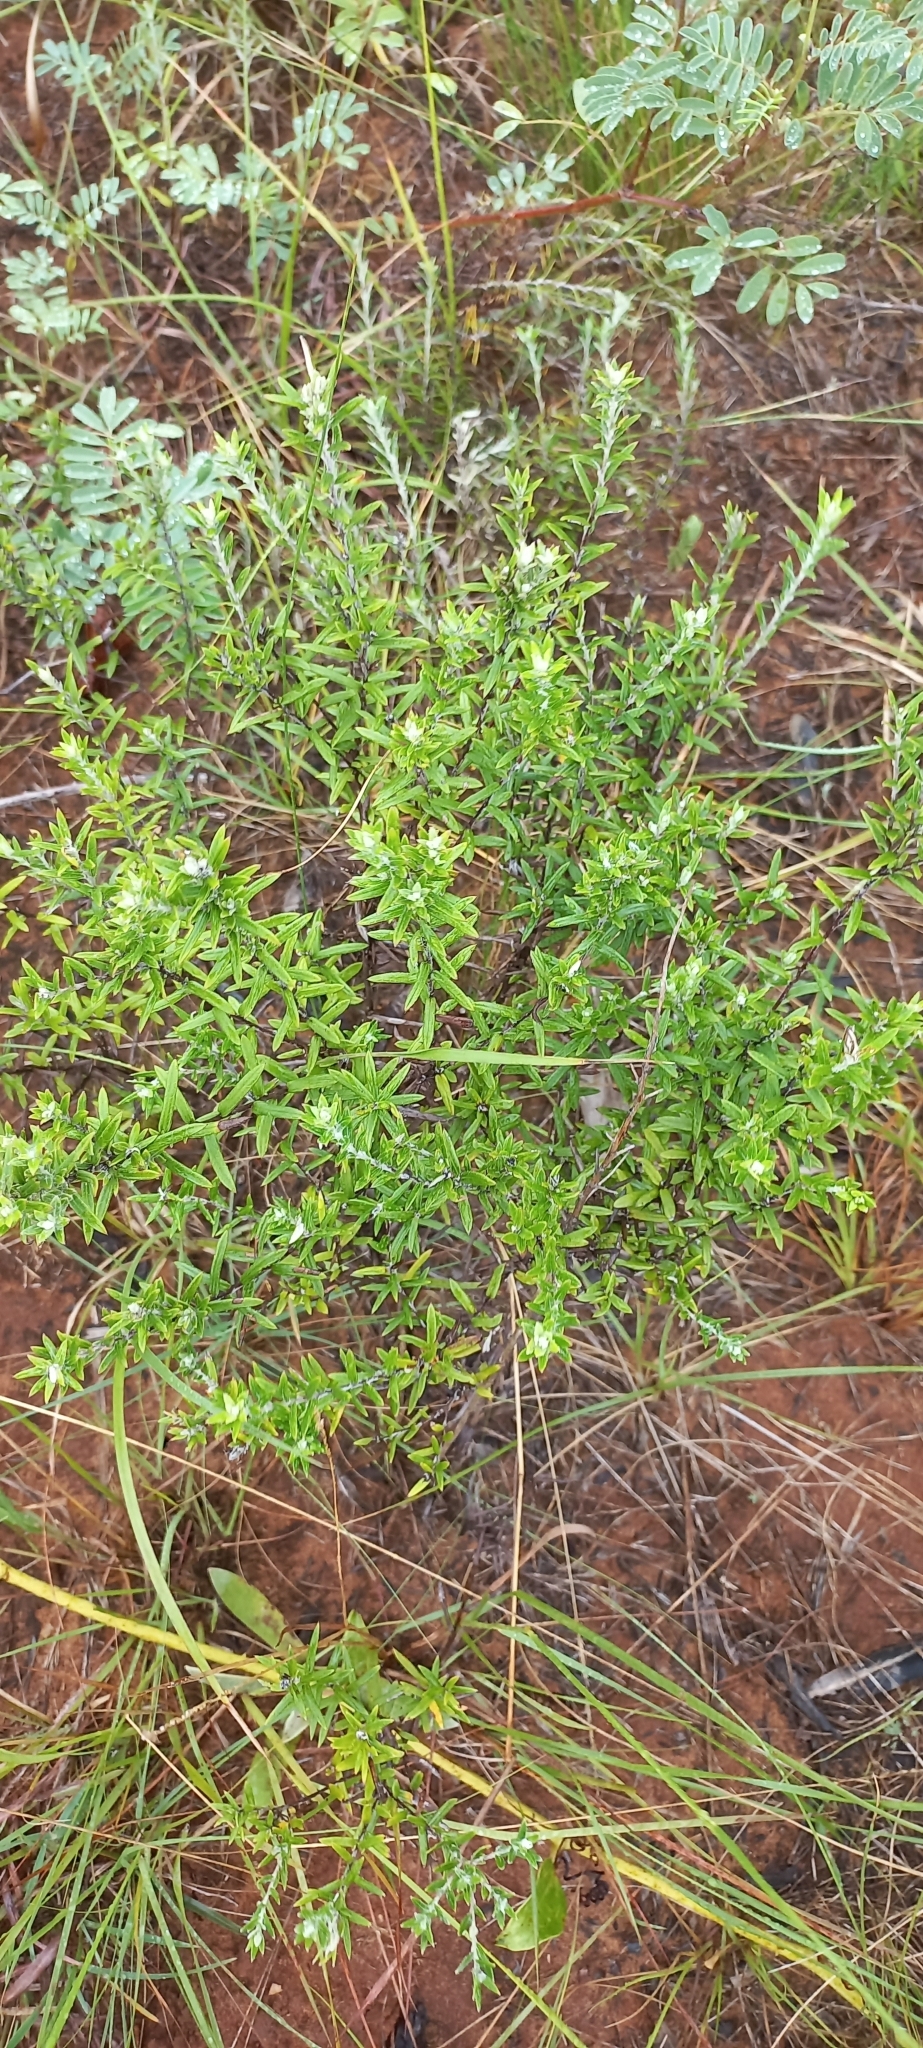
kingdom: Plantae
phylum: Tracheophyta
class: Magnoliopsida
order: Asterales
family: Asteraceae
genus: Athrixia
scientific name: Athrixia phylicoides
